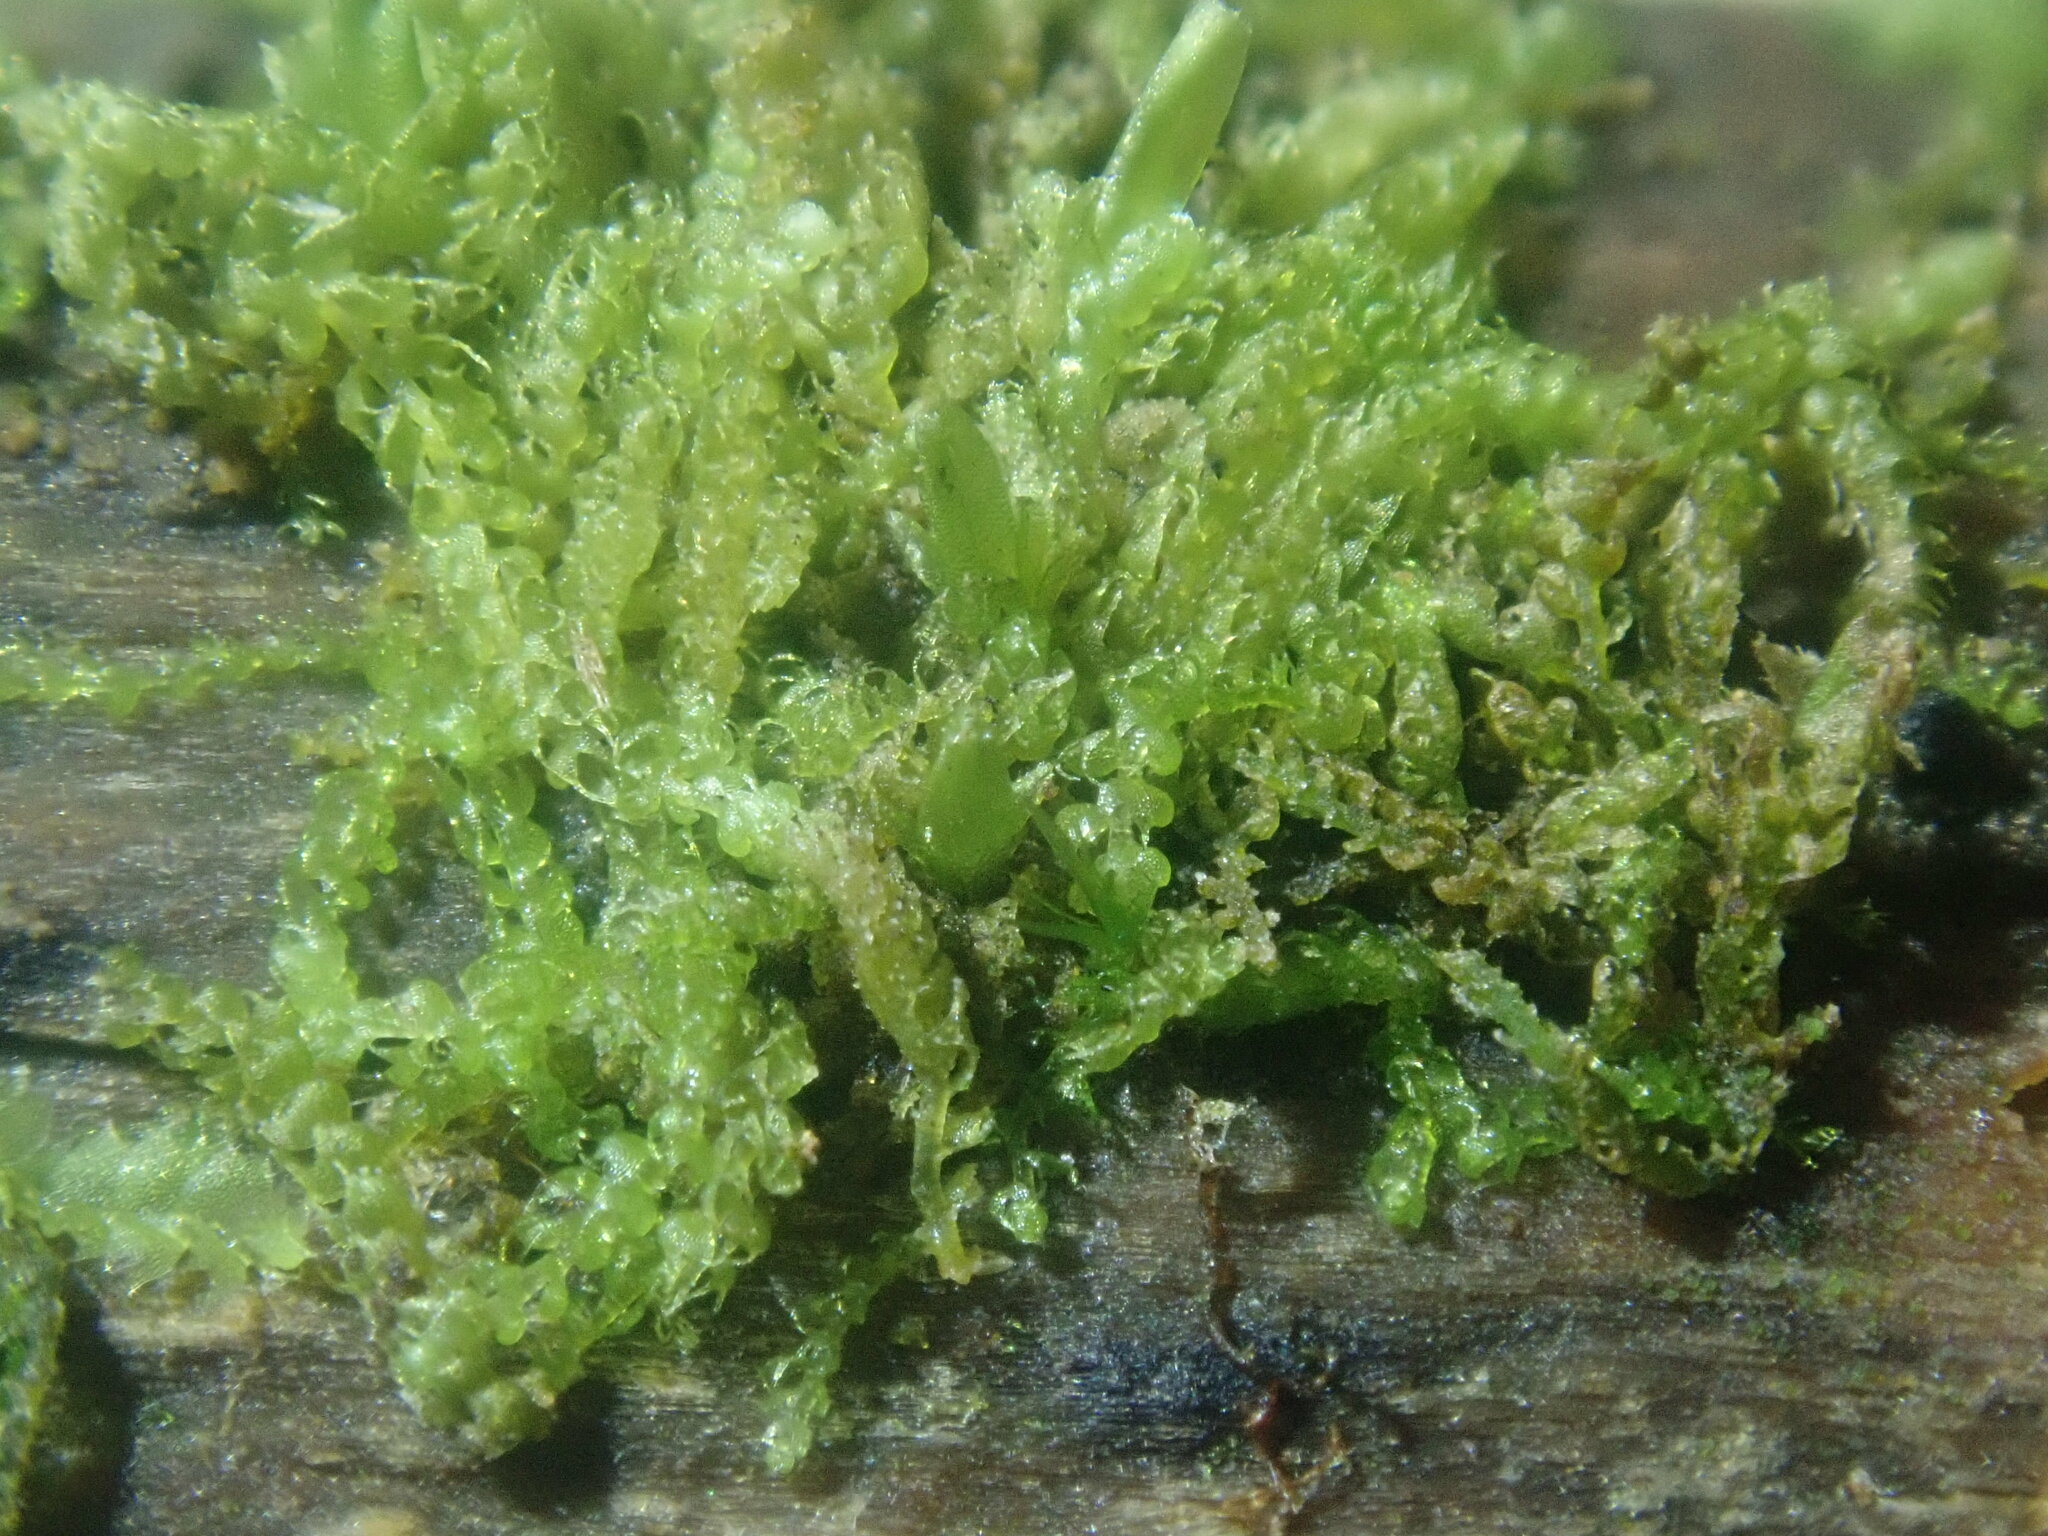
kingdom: Plantae
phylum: Marchantiophyta
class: Jungermanniopsida
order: Jungermanniales
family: Cephaloziaceae
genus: Nowellia
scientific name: Nowellia curvifolia
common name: Wood rustwort
